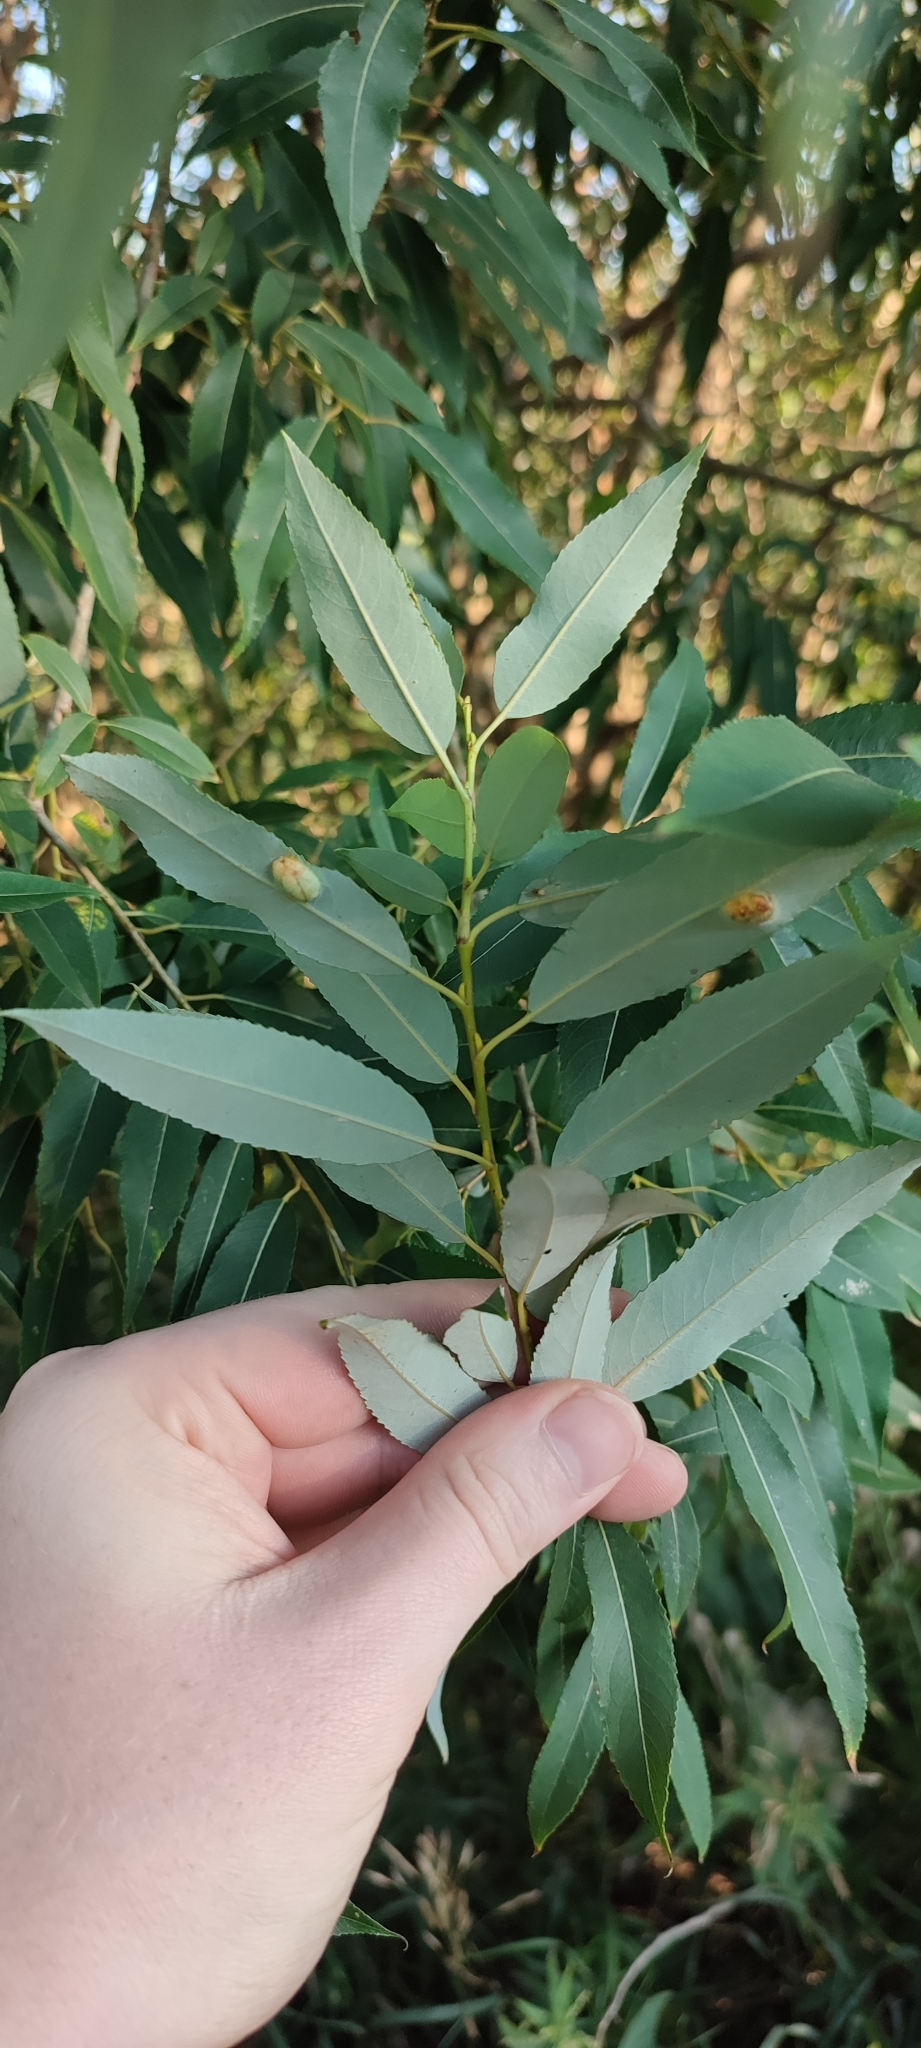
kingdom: Plantae
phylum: Tracheophyta
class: Magnoliopsida
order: Malpighiales
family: Salicaceae
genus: Salix
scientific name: Salix triandra
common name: Almond willow
